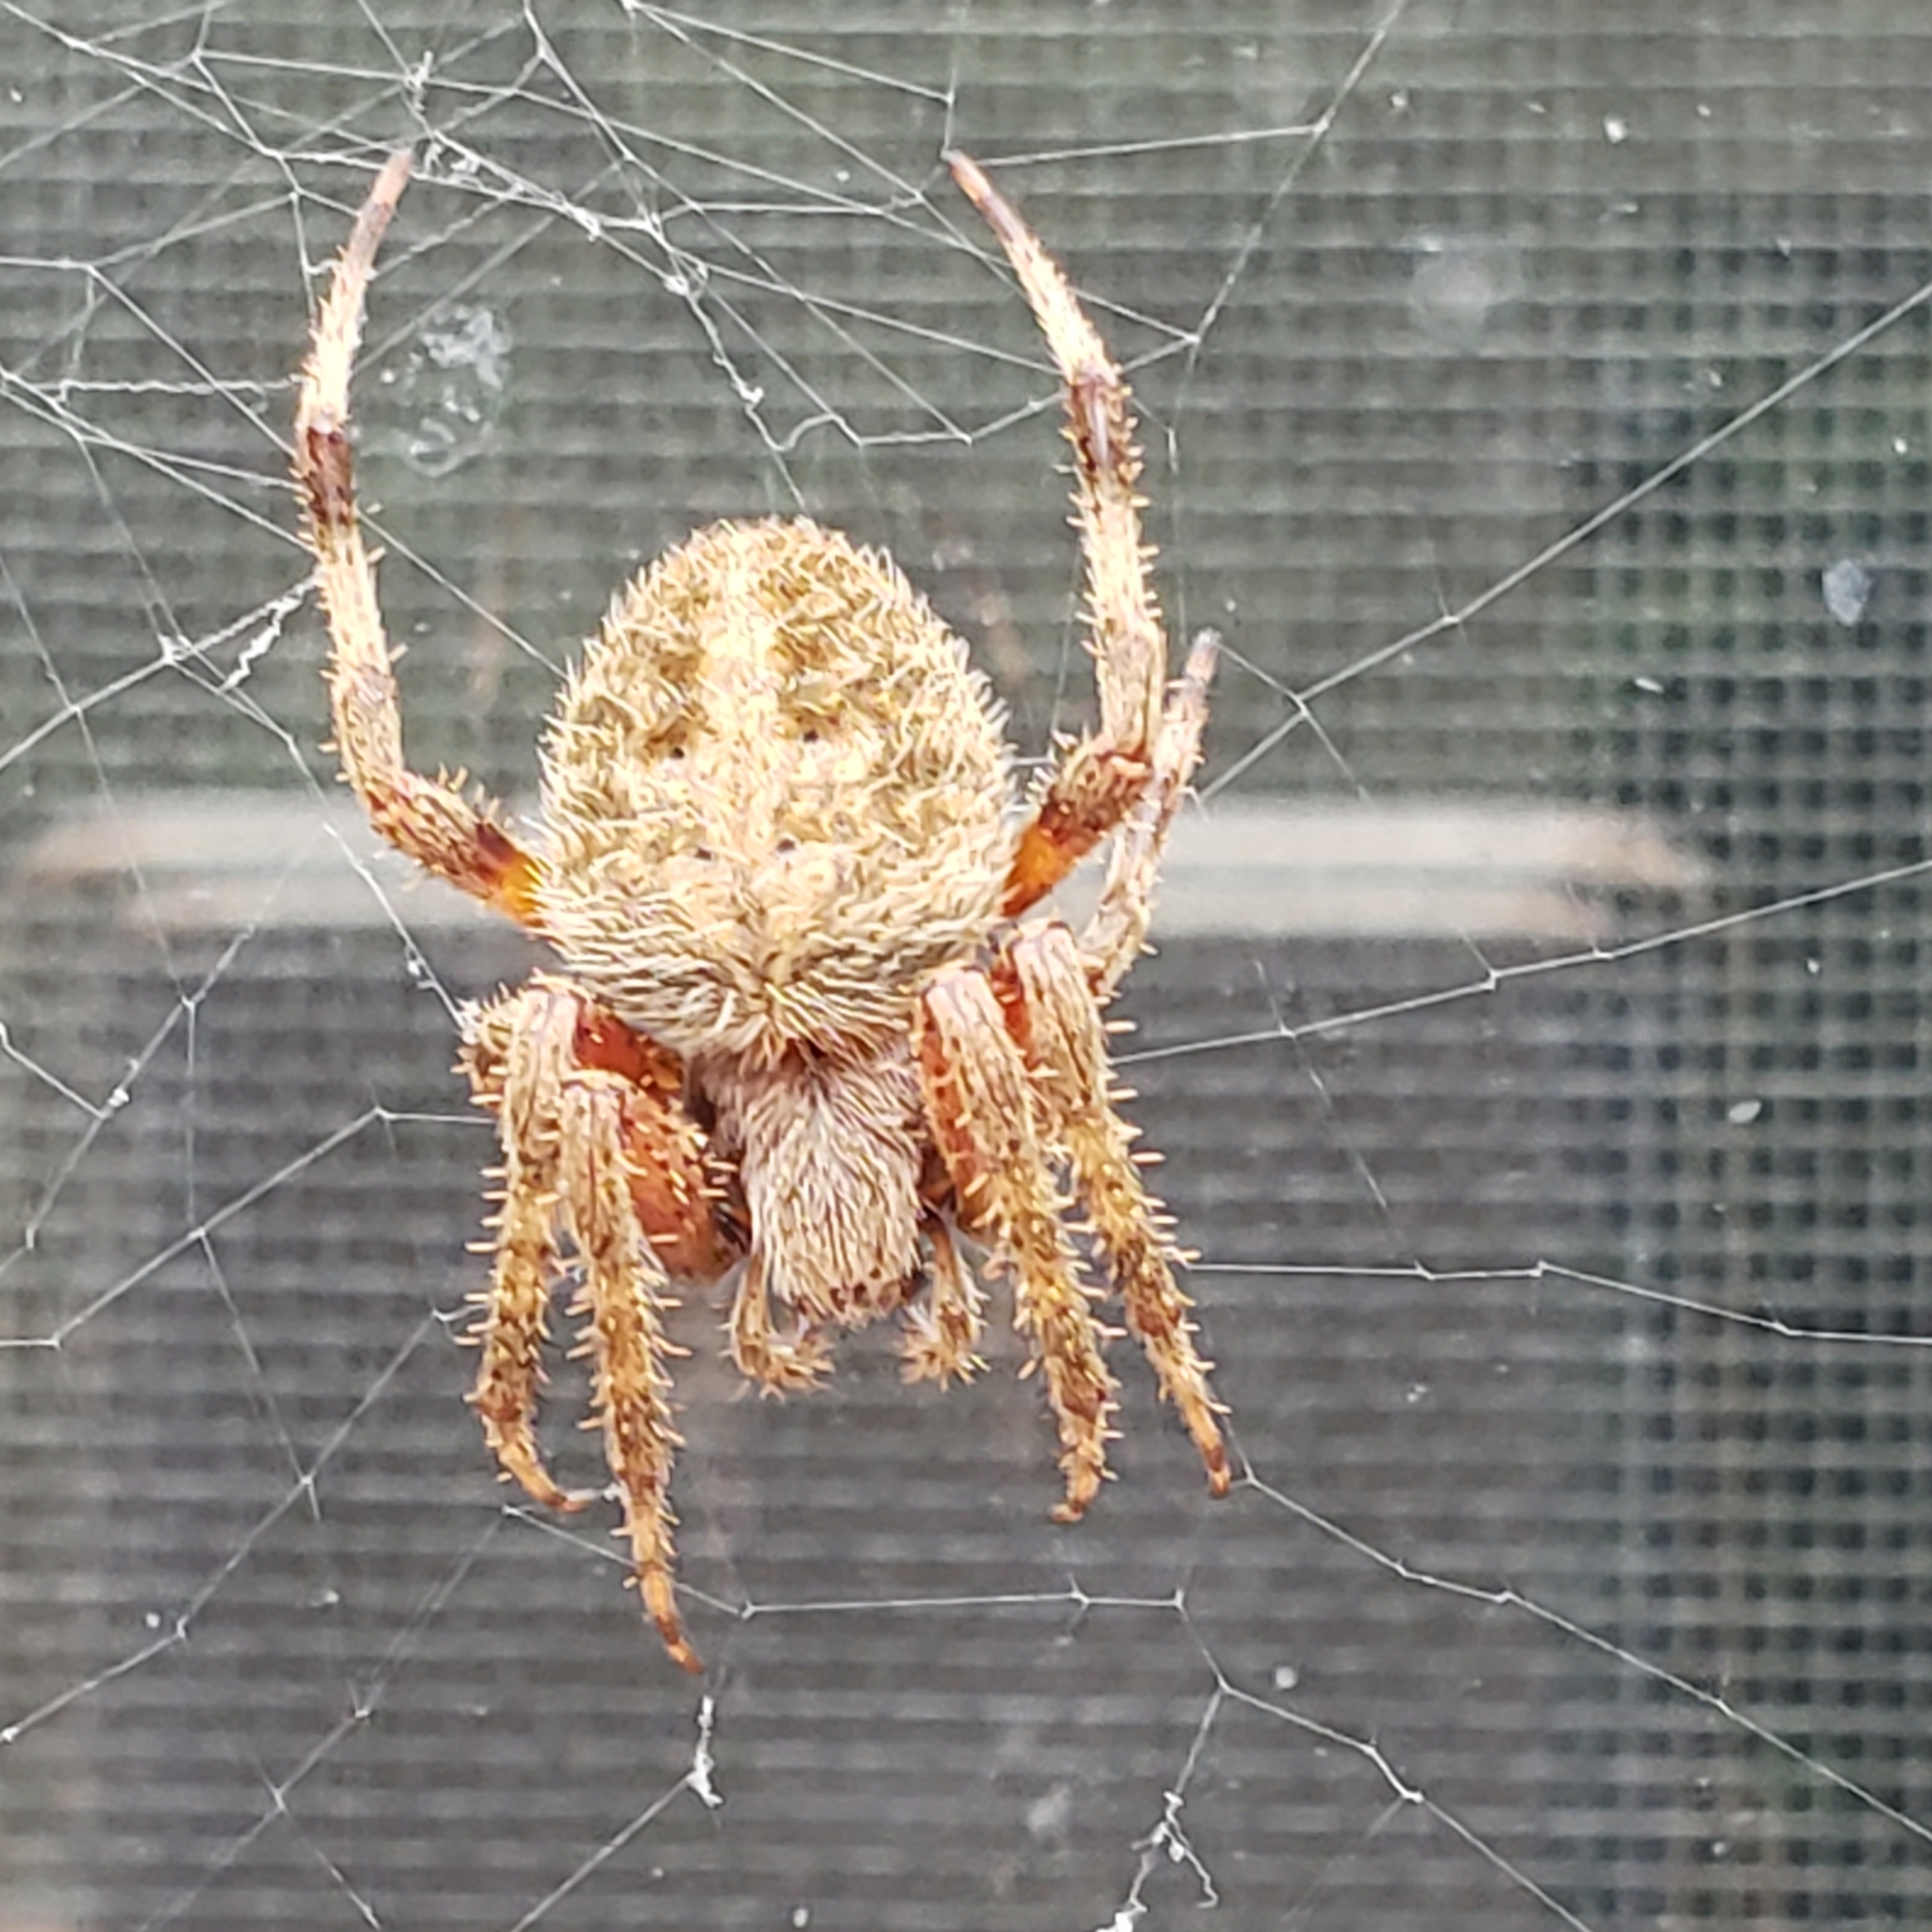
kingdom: Animalia
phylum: Arthropoda
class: Arachnida
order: Araneae
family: Araneidae
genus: Neoscona
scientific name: Neoscona crucifera
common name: Spotted orbweaver
